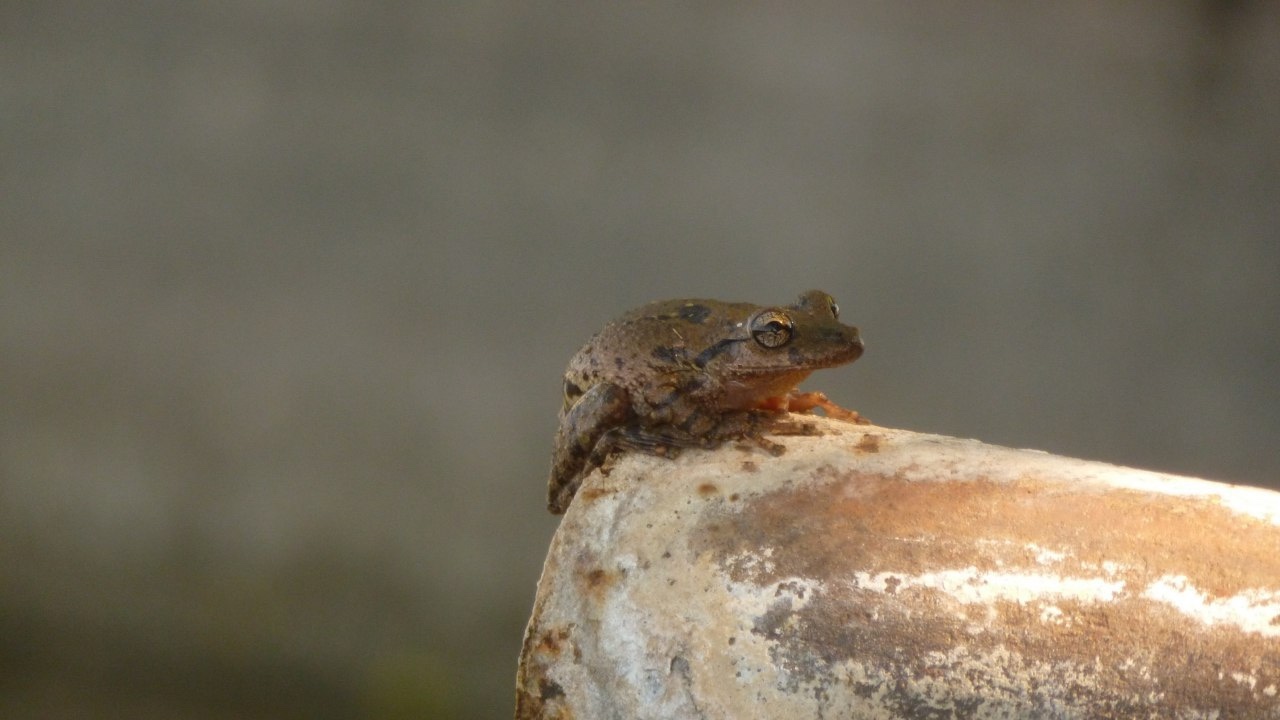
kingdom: Animalia
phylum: Chordata
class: Amphibia
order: Anura
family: Hylidae
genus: Scinax
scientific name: Scinax granulatus
